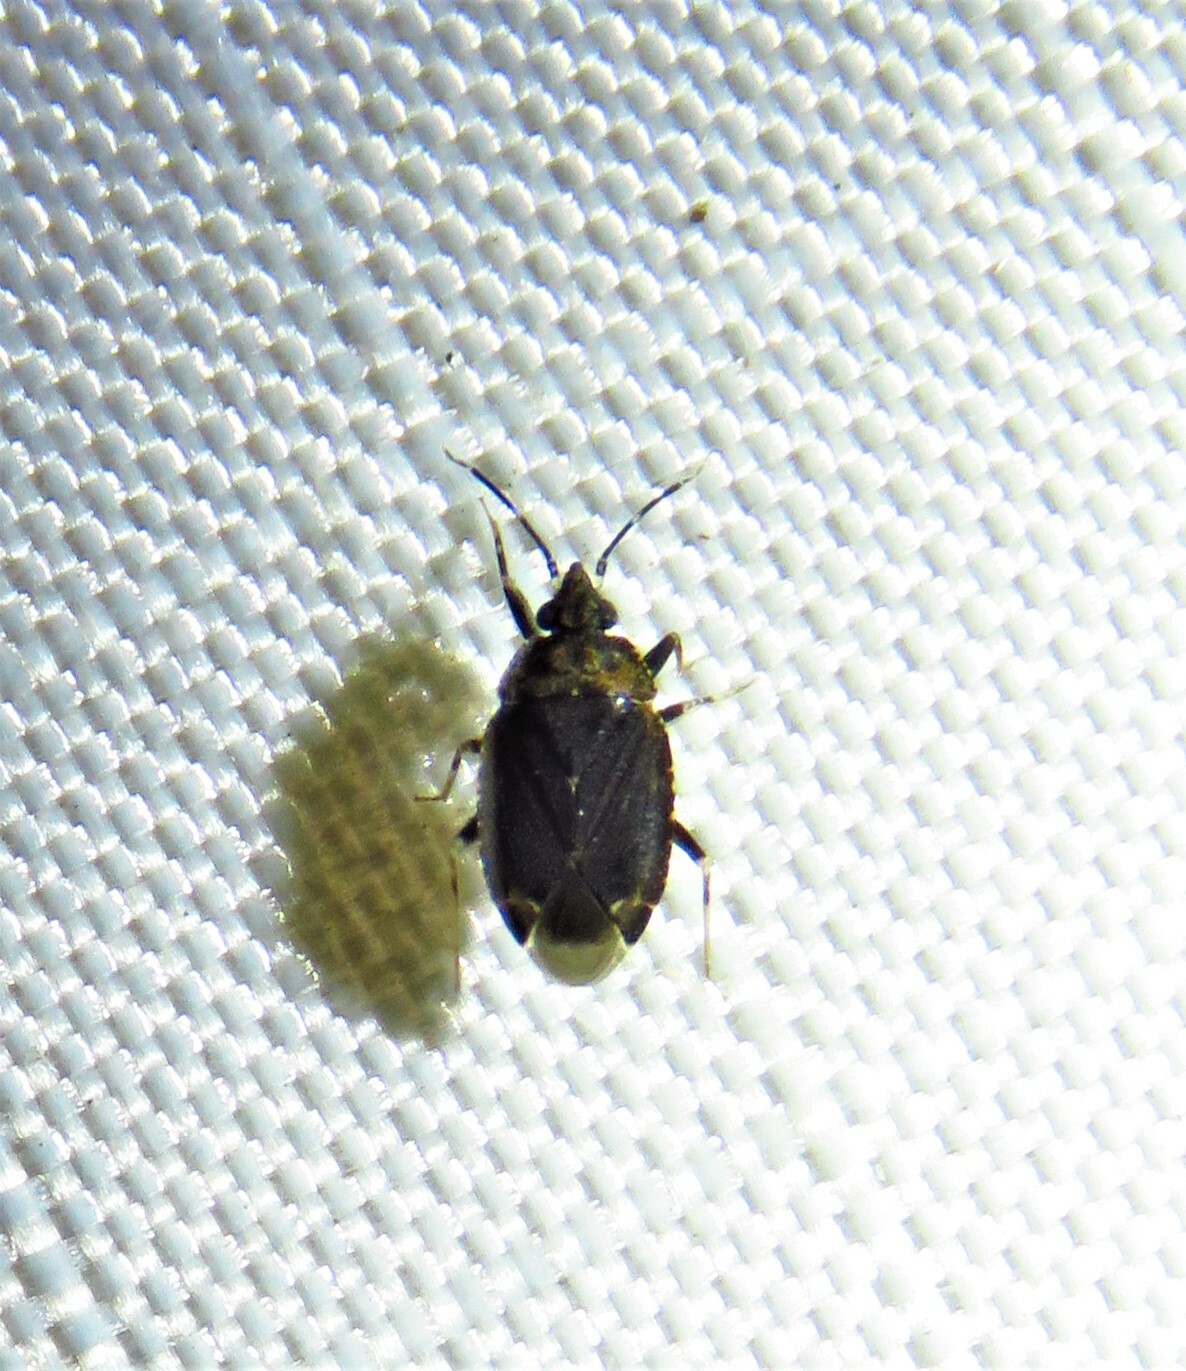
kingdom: Animalia
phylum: Arthropoda
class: Insecta
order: Hemiptera
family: Miridae
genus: Peritropis
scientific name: Peritropis saldaeformis
